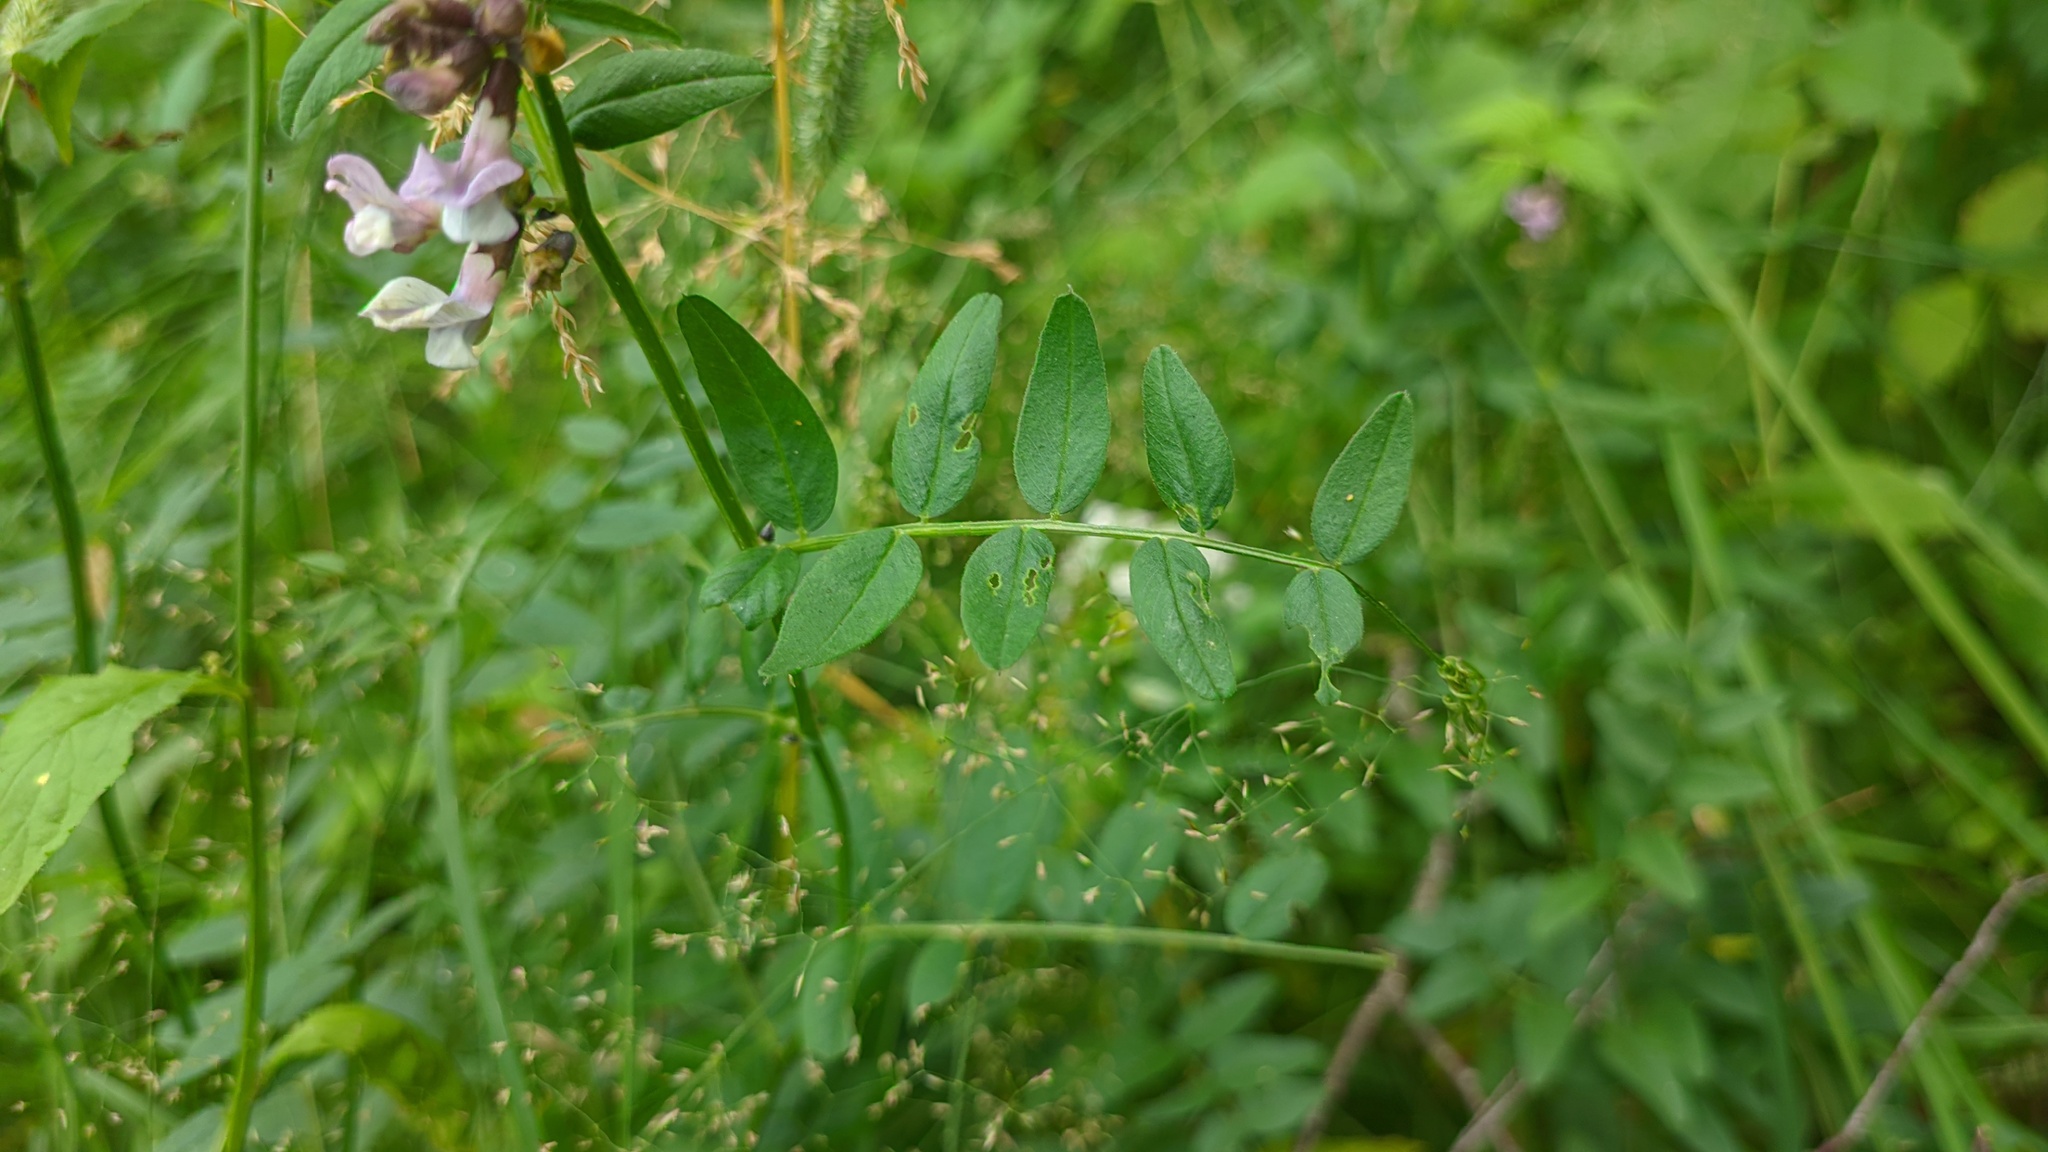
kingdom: Plantae
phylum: Tracheophyta
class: Magnoliopsida
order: Fabales
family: Fabaceae
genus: Vicia
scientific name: Vicia sepium
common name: Bush vetch
